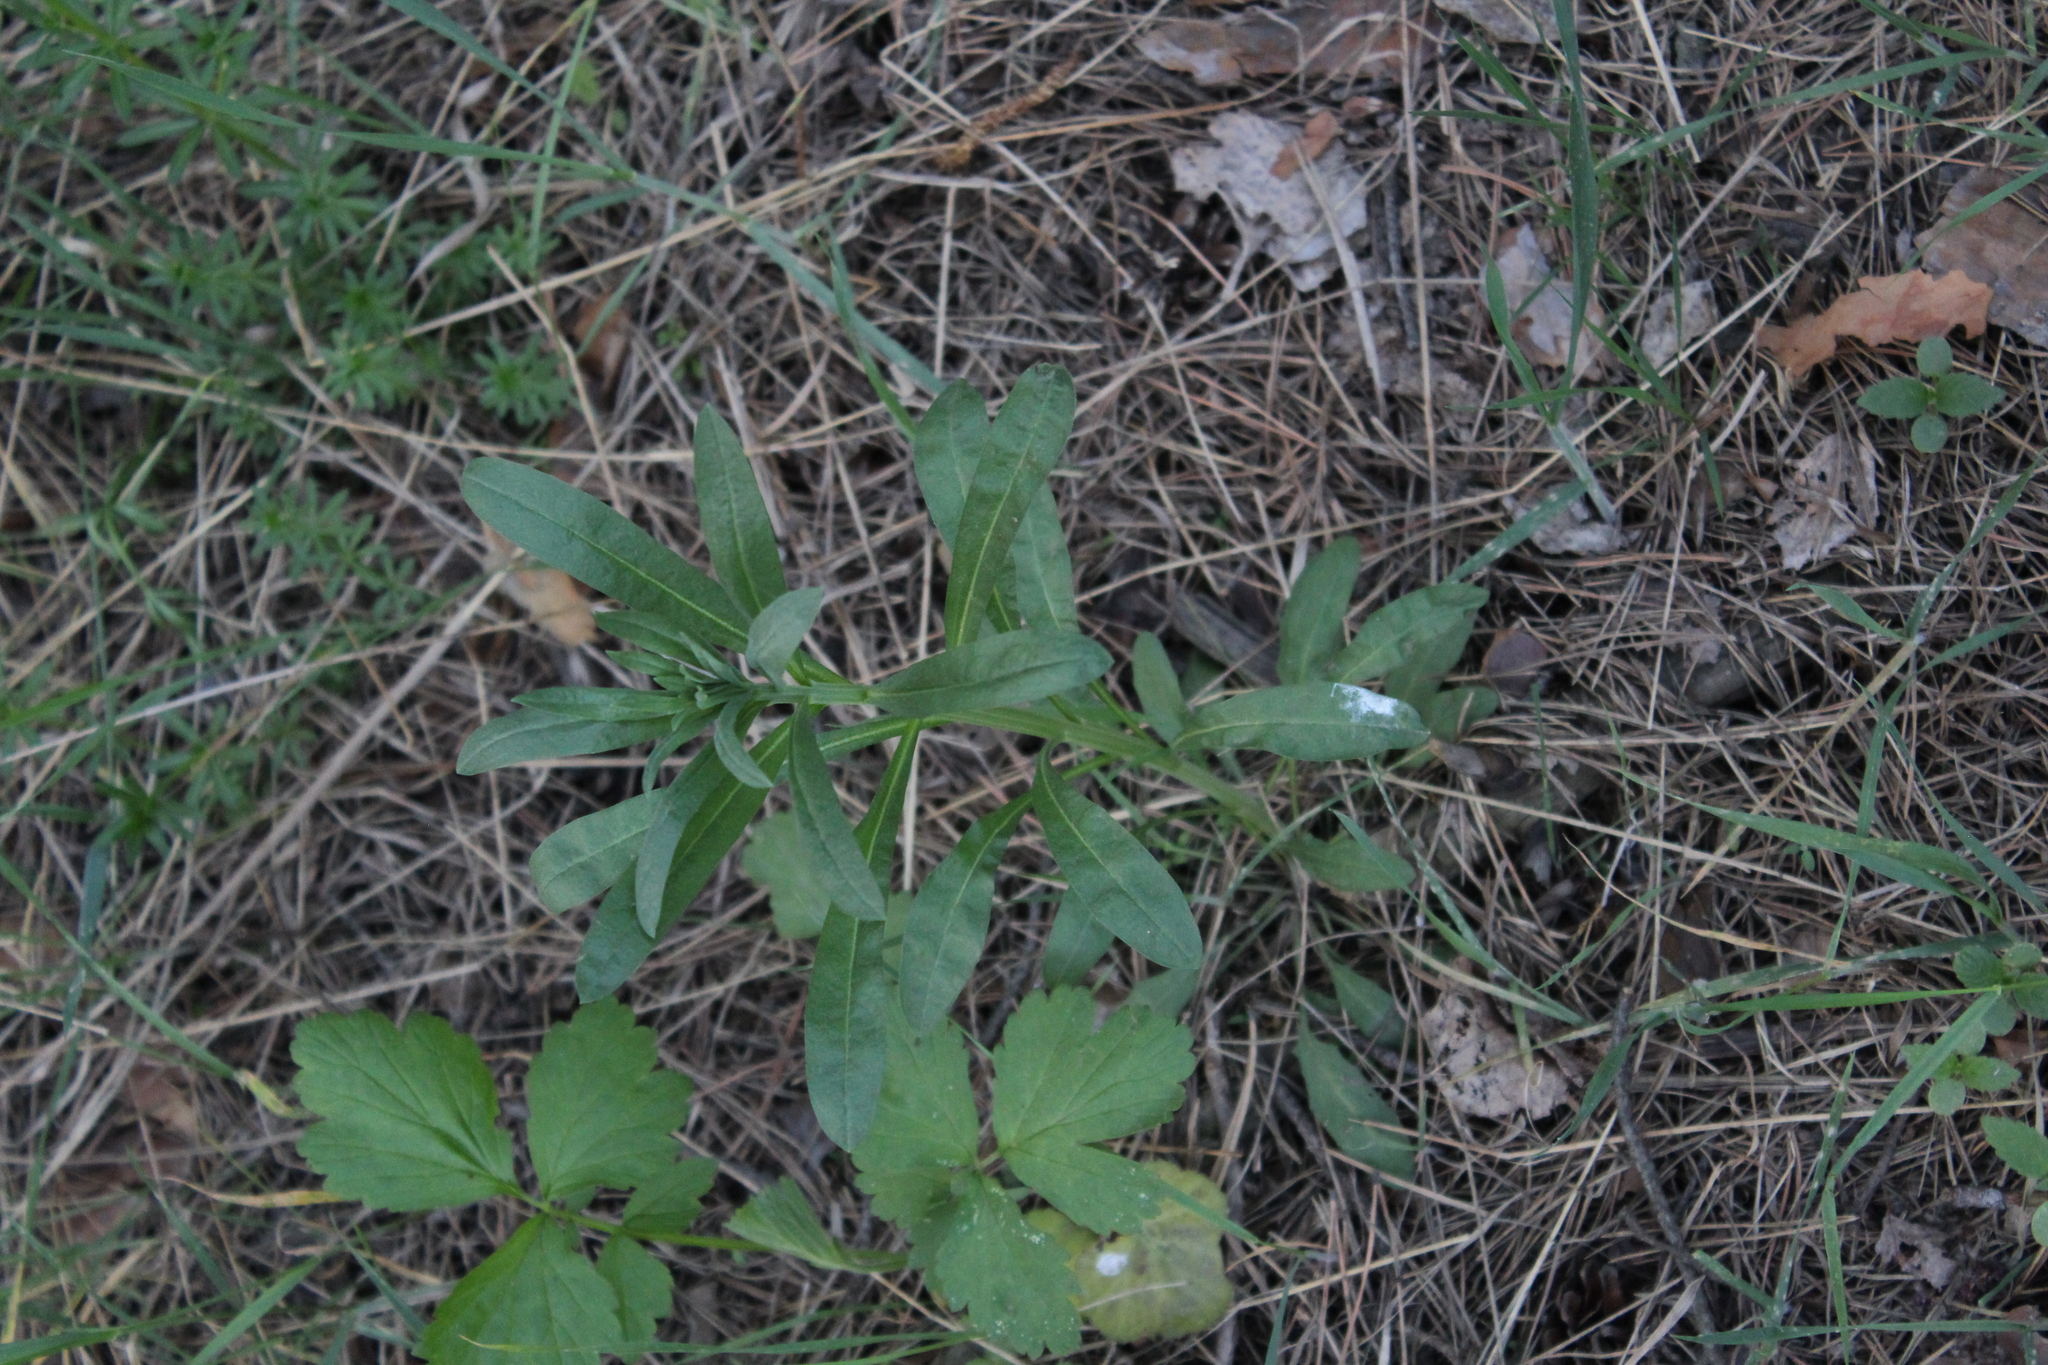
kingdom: Plantae
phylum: Tracheophyta
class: Magnoliopsida
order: Brassicales
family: Brassicaceae
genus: Berteroa
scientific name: Berteroa incana
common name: Hoary alison
